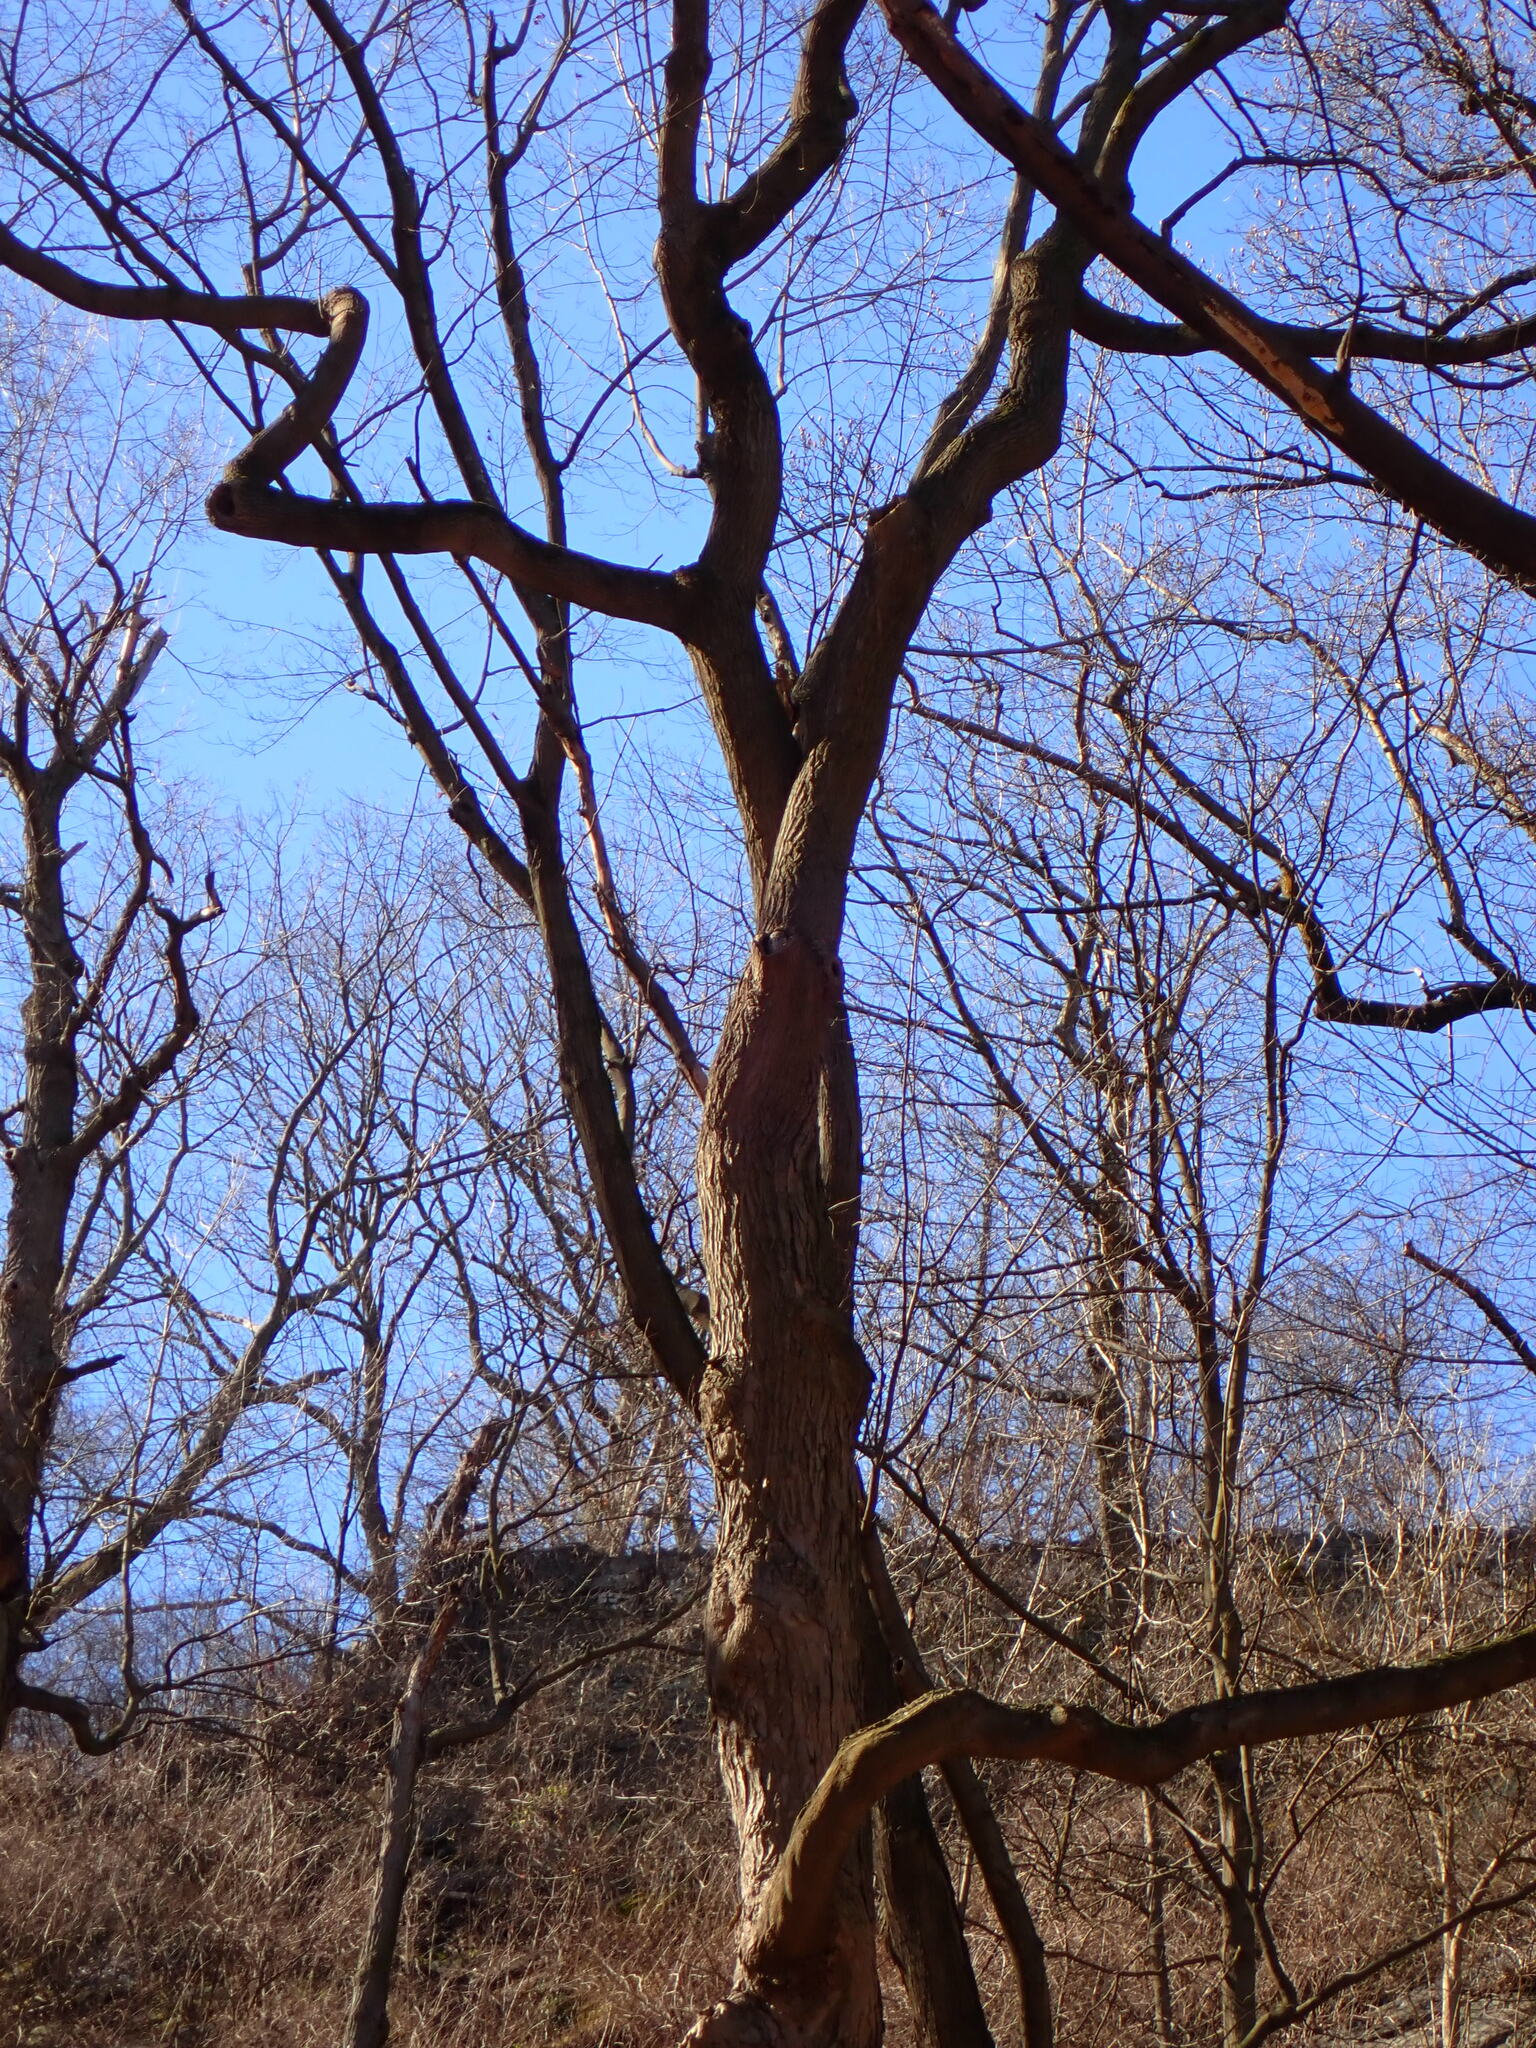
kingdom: Animalia
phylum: Chordata
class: Aves
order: Strigiformes
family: Strigidae
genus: Megascops
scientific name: Megascops asio
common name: Eastern screech-owl
